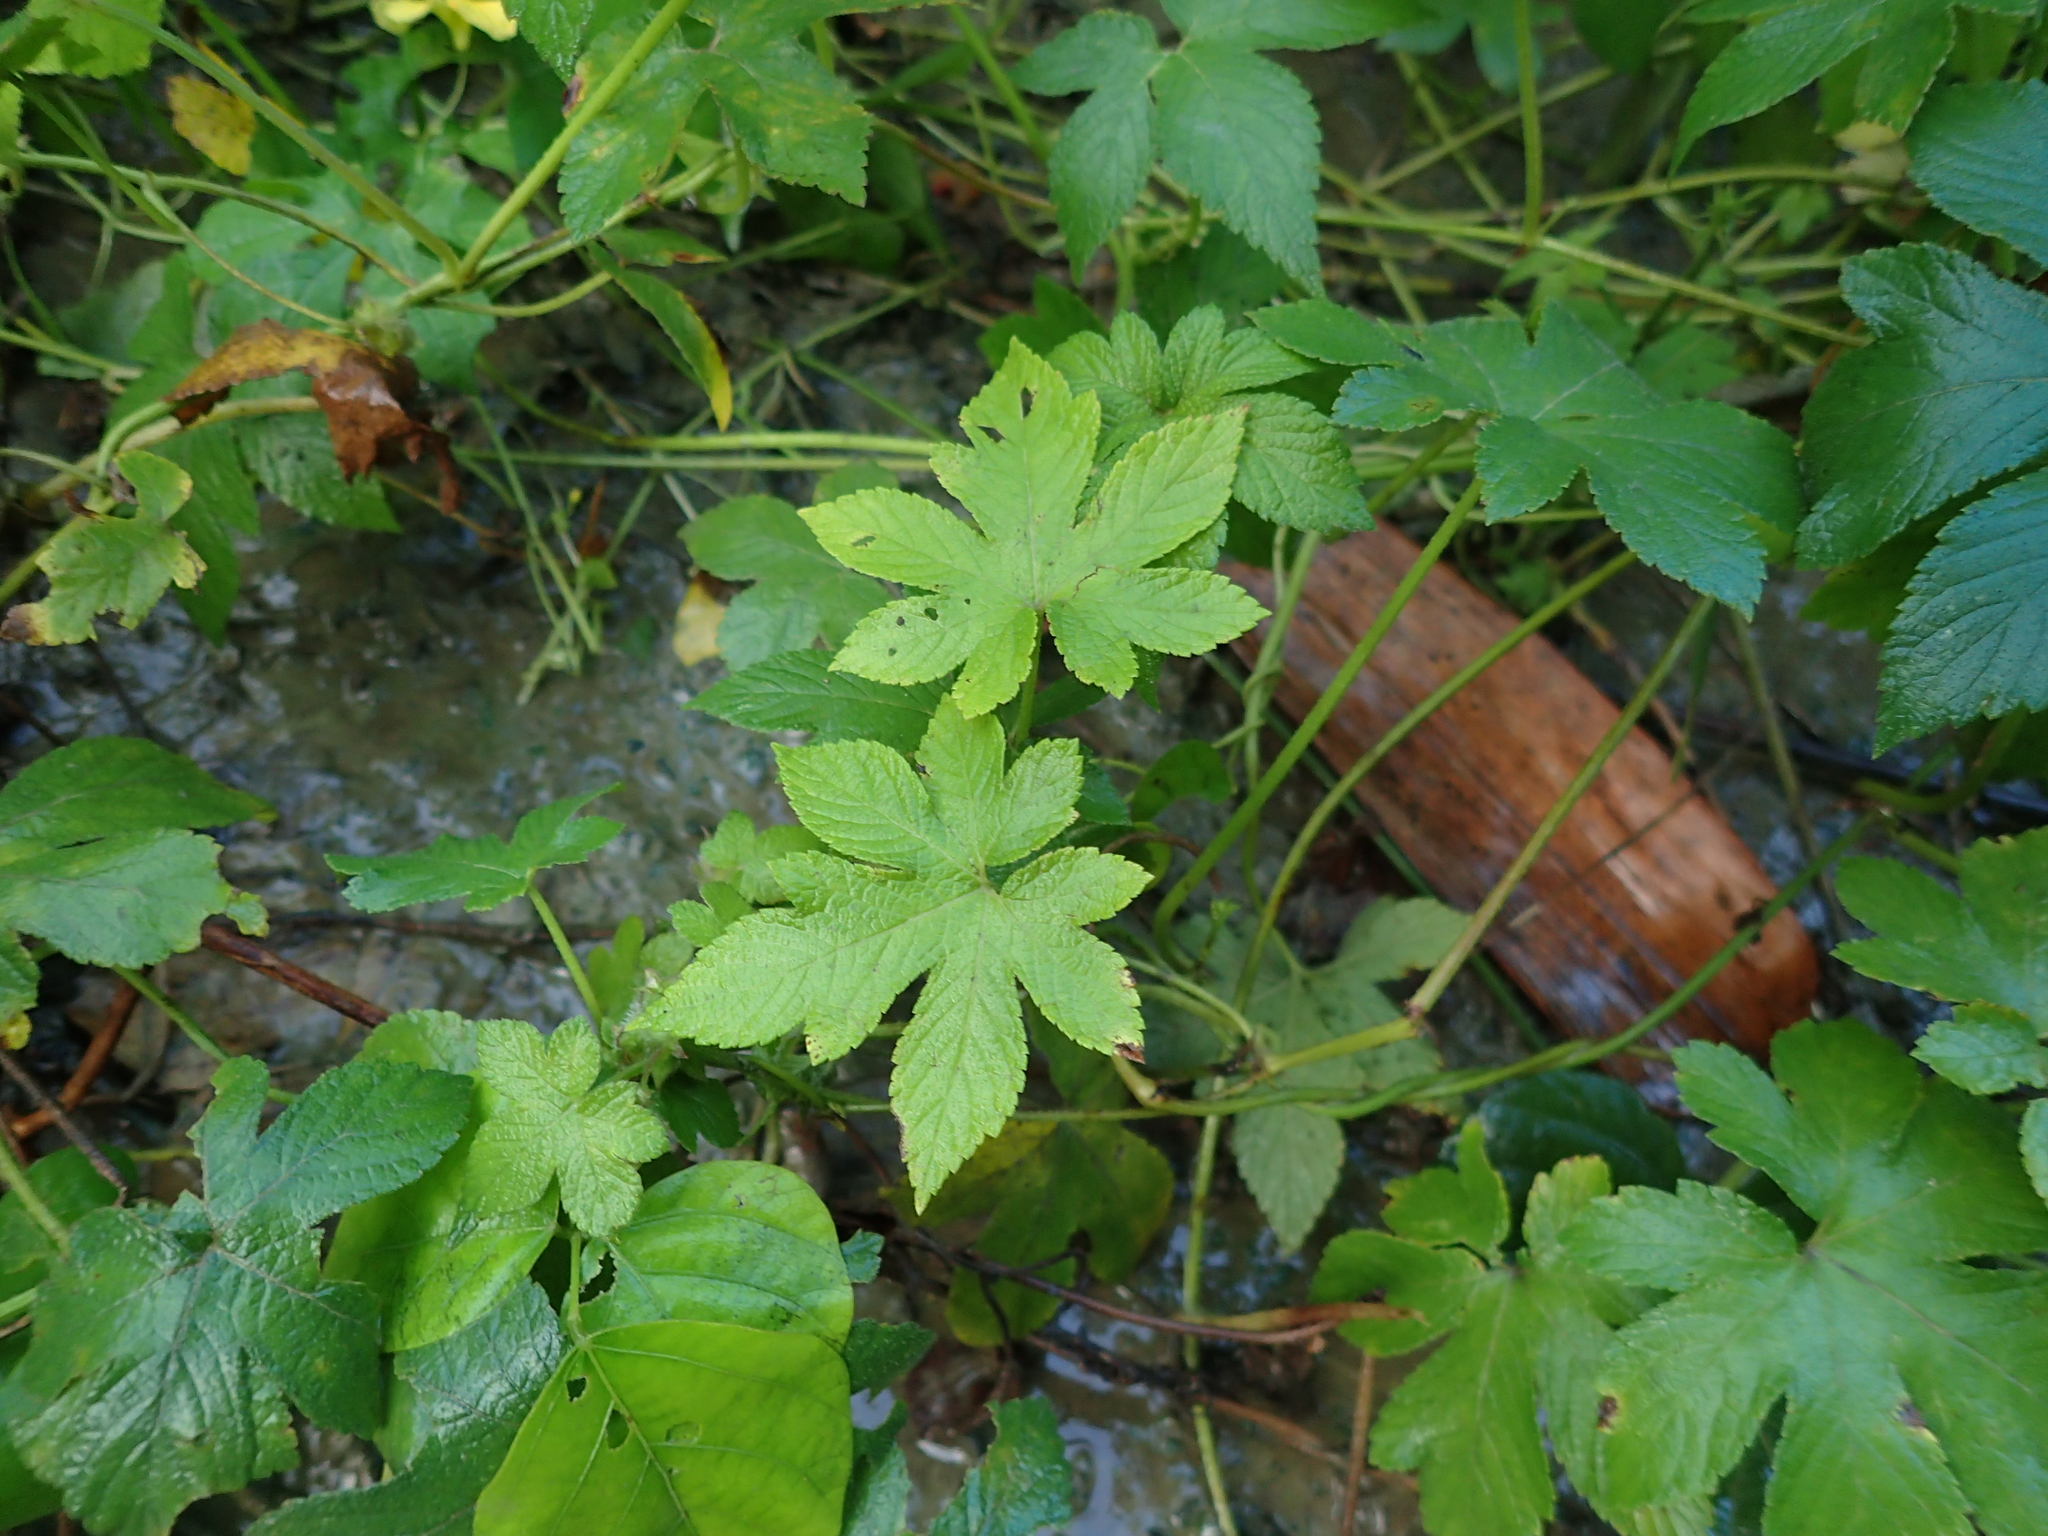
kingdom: Plantae
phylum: Tracheophyta
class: Magnoliopsida
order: Rosales
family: Cannabaceae
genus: Humulus
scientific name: Humulus scandens
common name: Japanese hop
